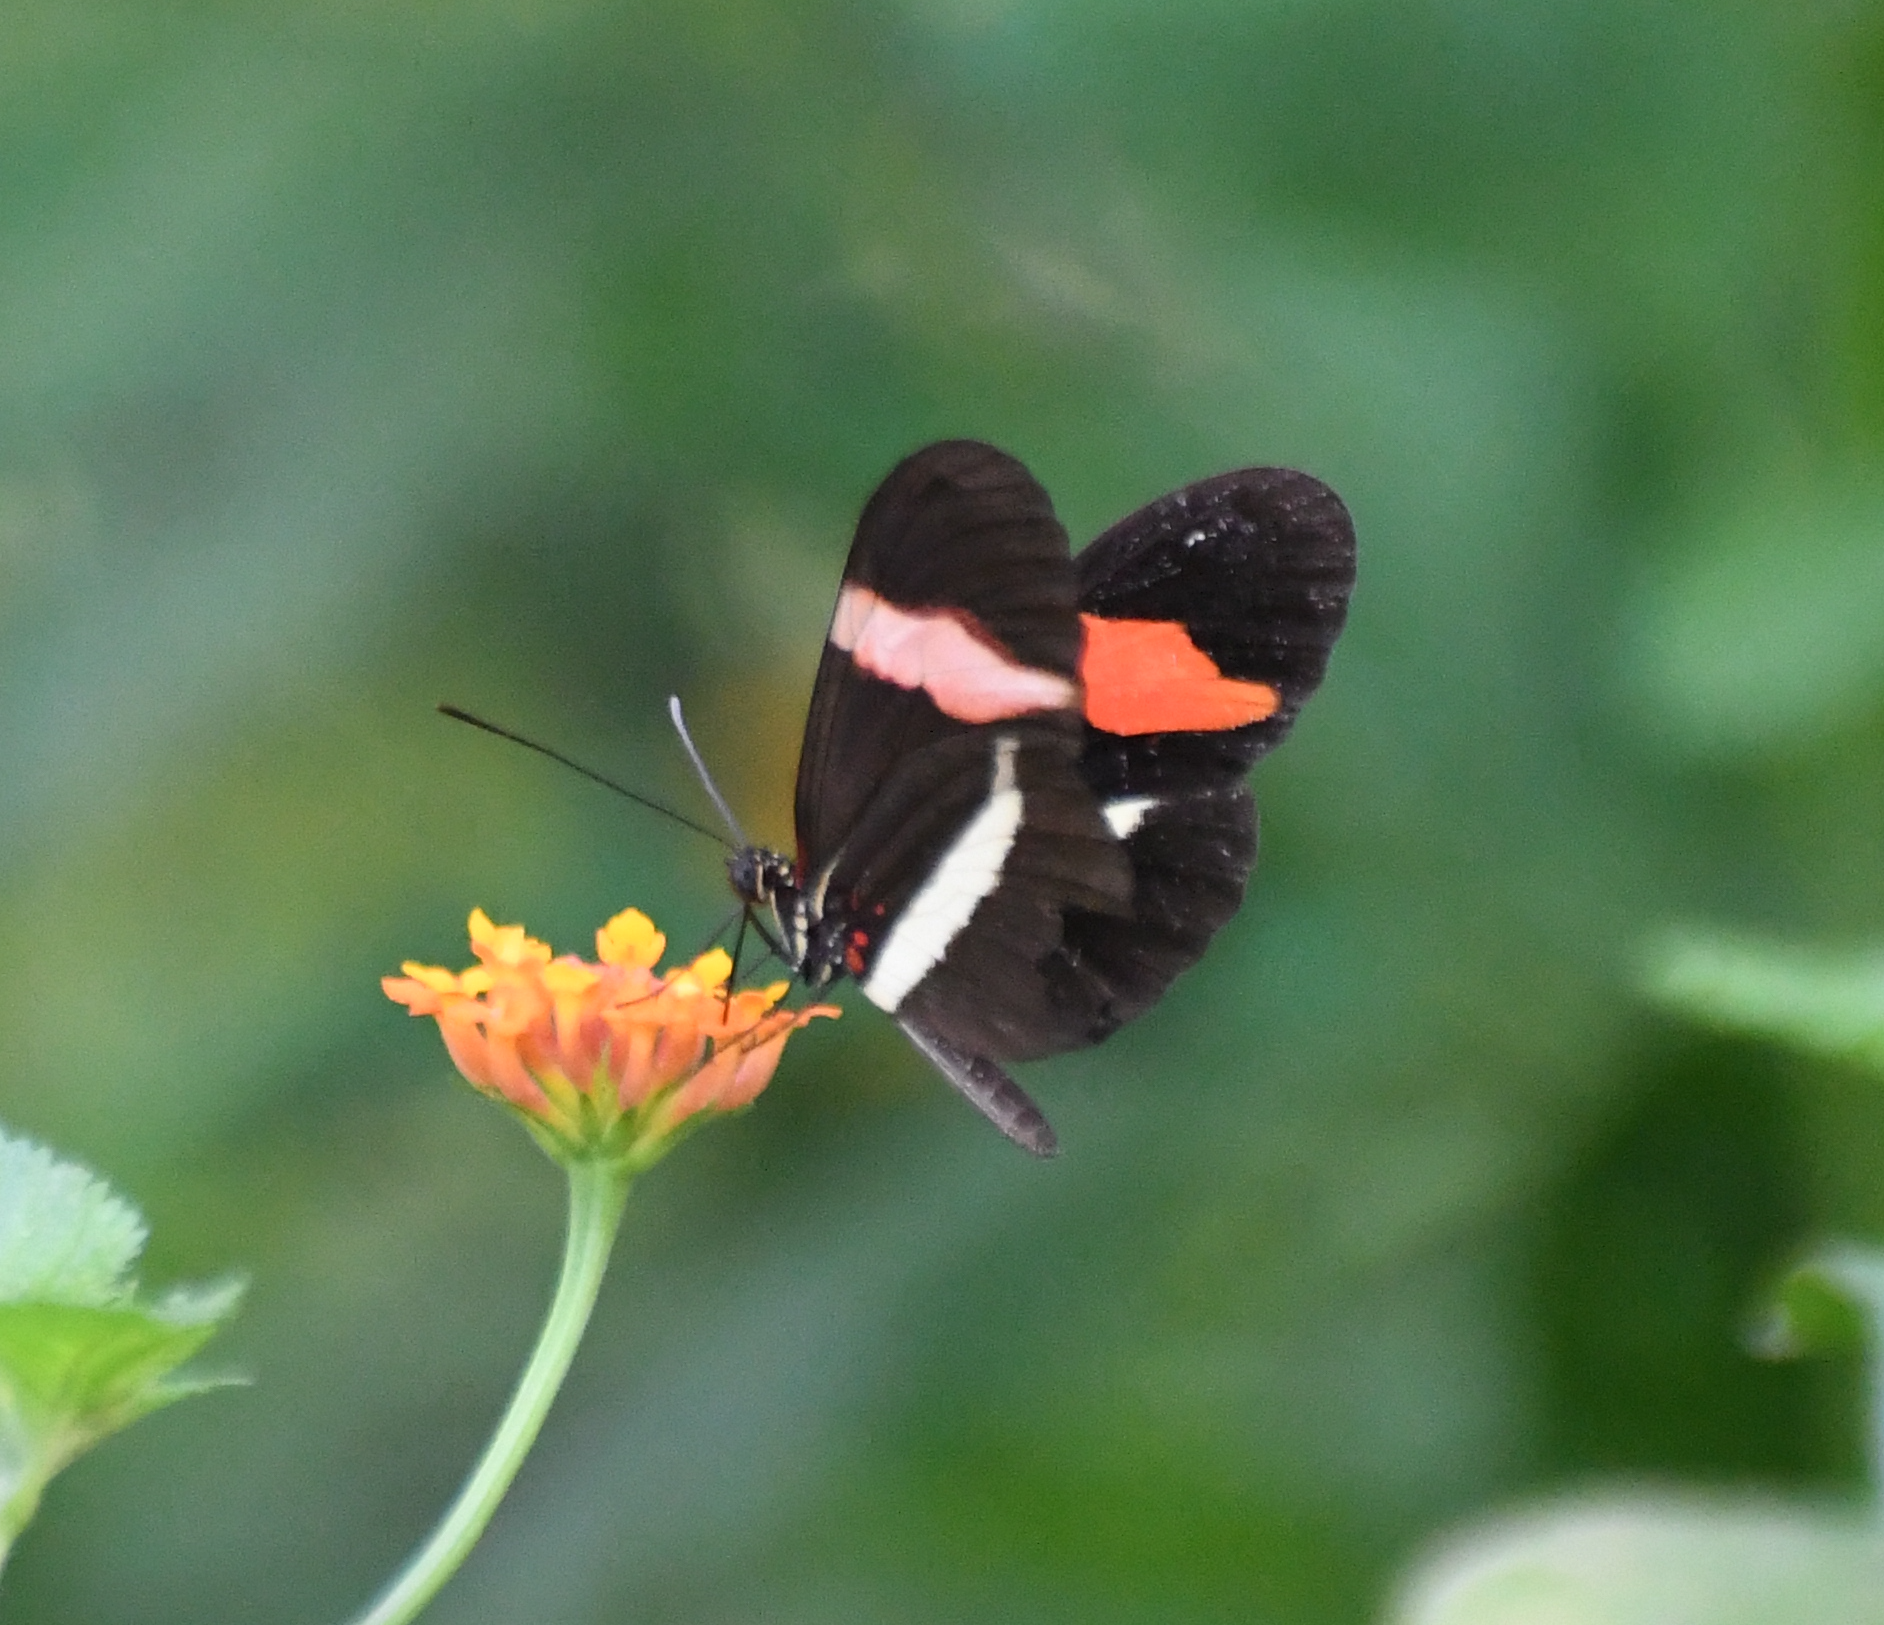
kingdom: Animalia
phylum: Arthropoda
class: Insecta
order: Lepidoptera
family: Nymphalidae
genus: Tirumala
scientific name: Tirumala petiverana
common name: Blue monarch
